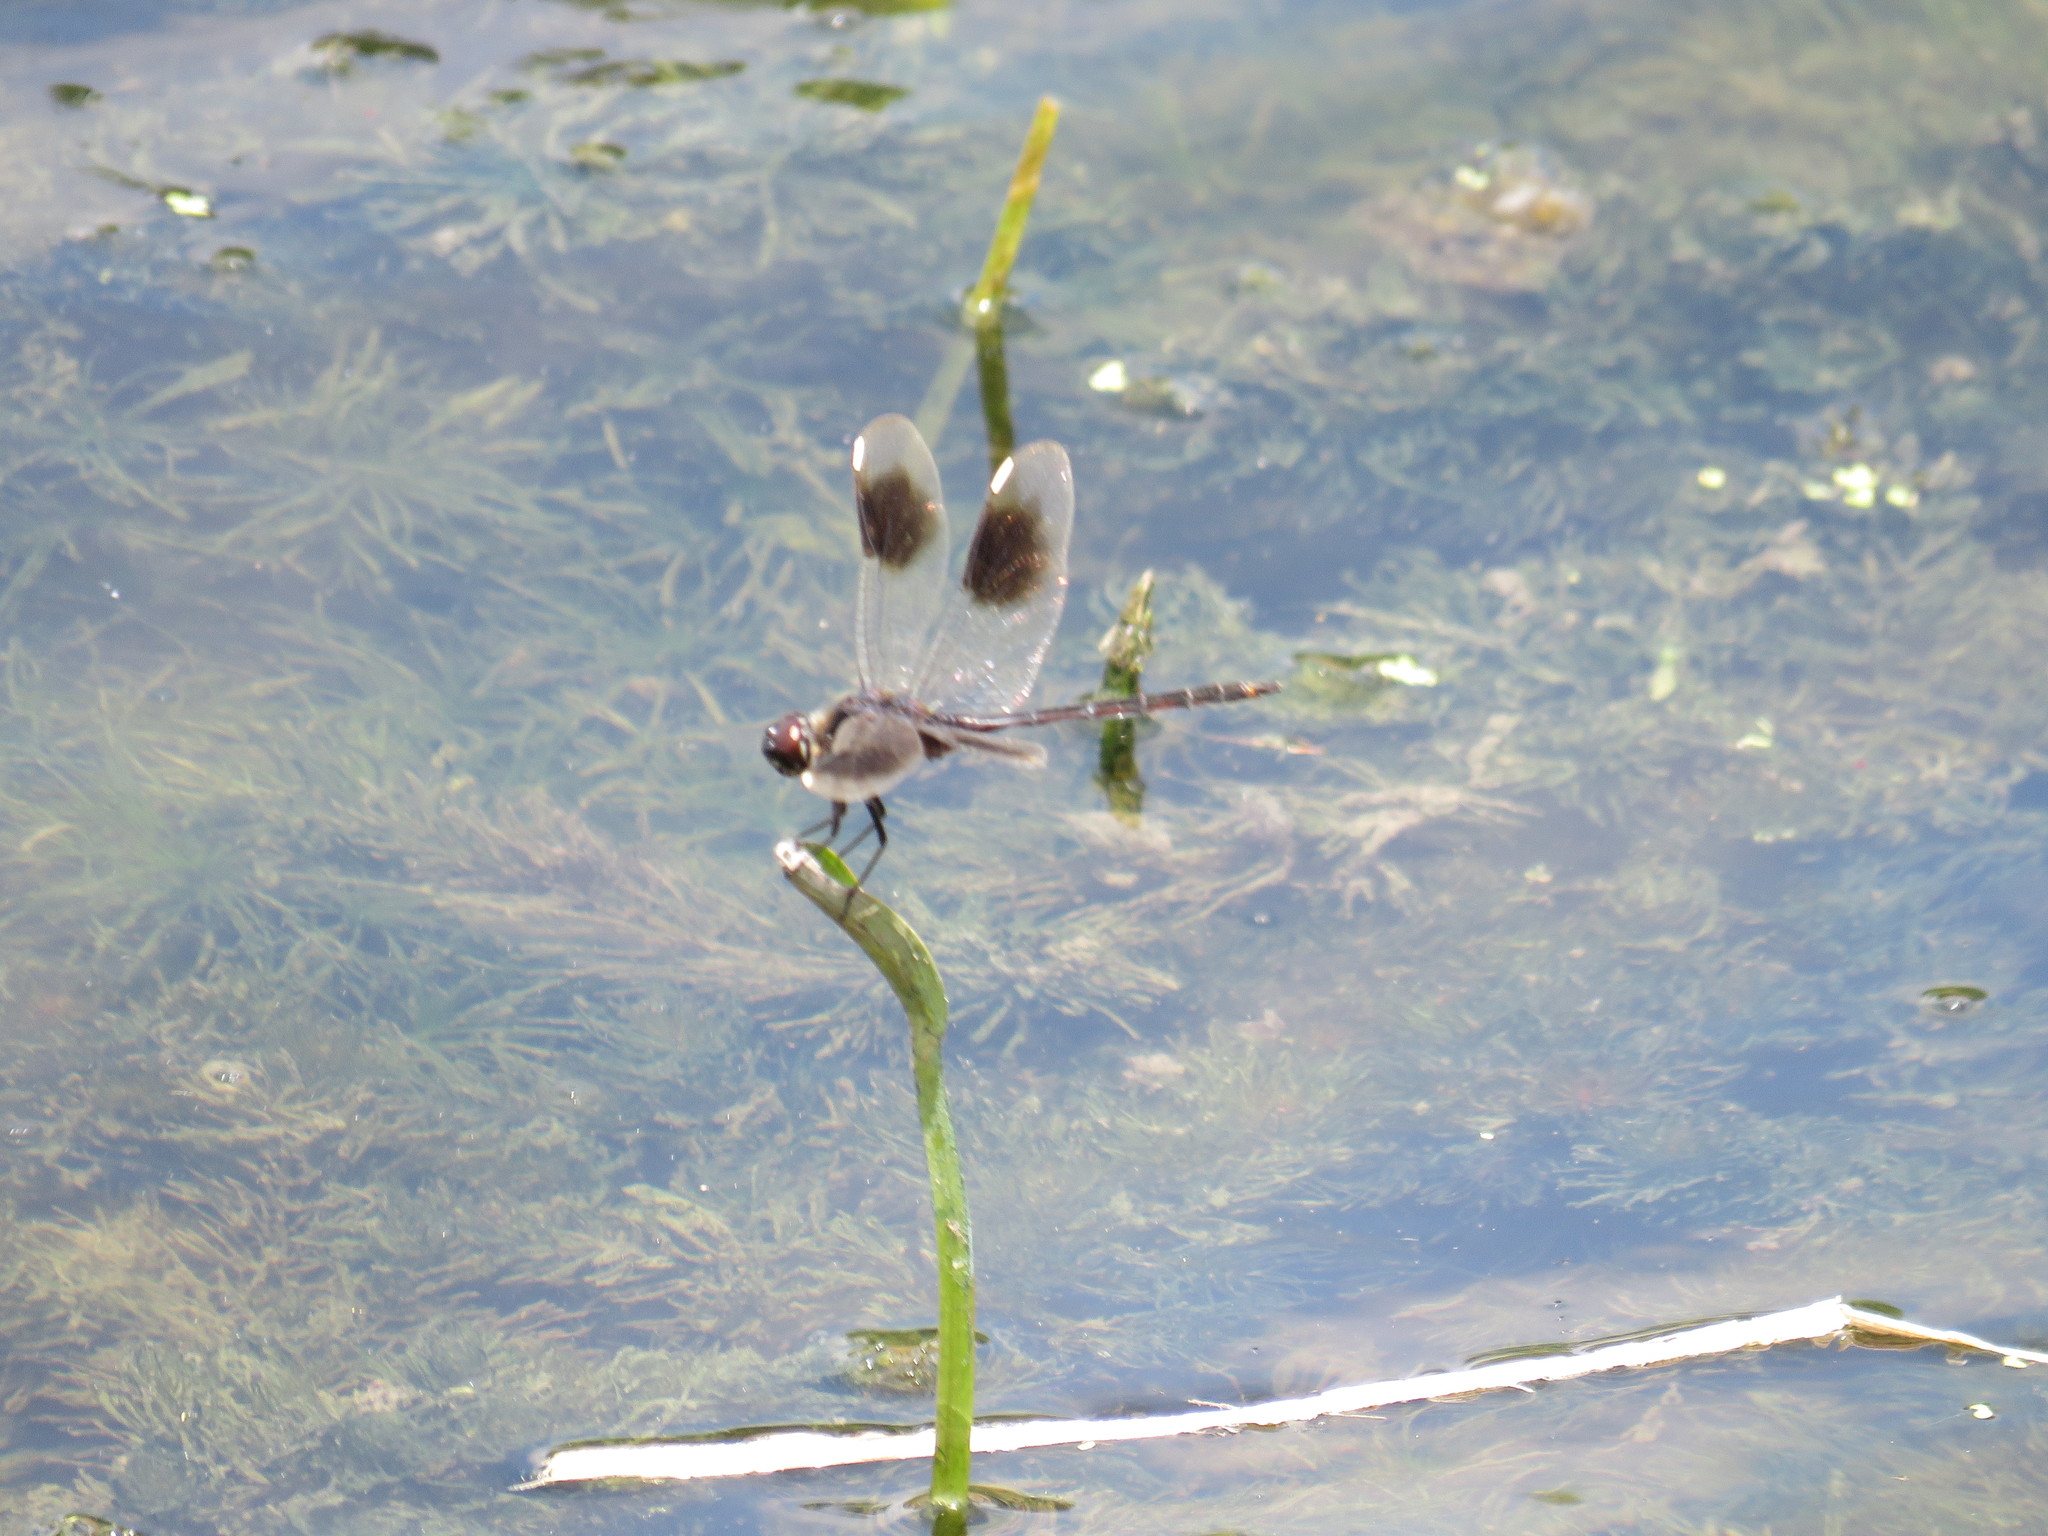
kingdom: Animalia
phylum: Arthropoda
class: Insecta
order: Odonata
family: Libellulidae
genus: Brachymesia
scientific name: Brachymesia gravida
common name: Four-spotted pennant
